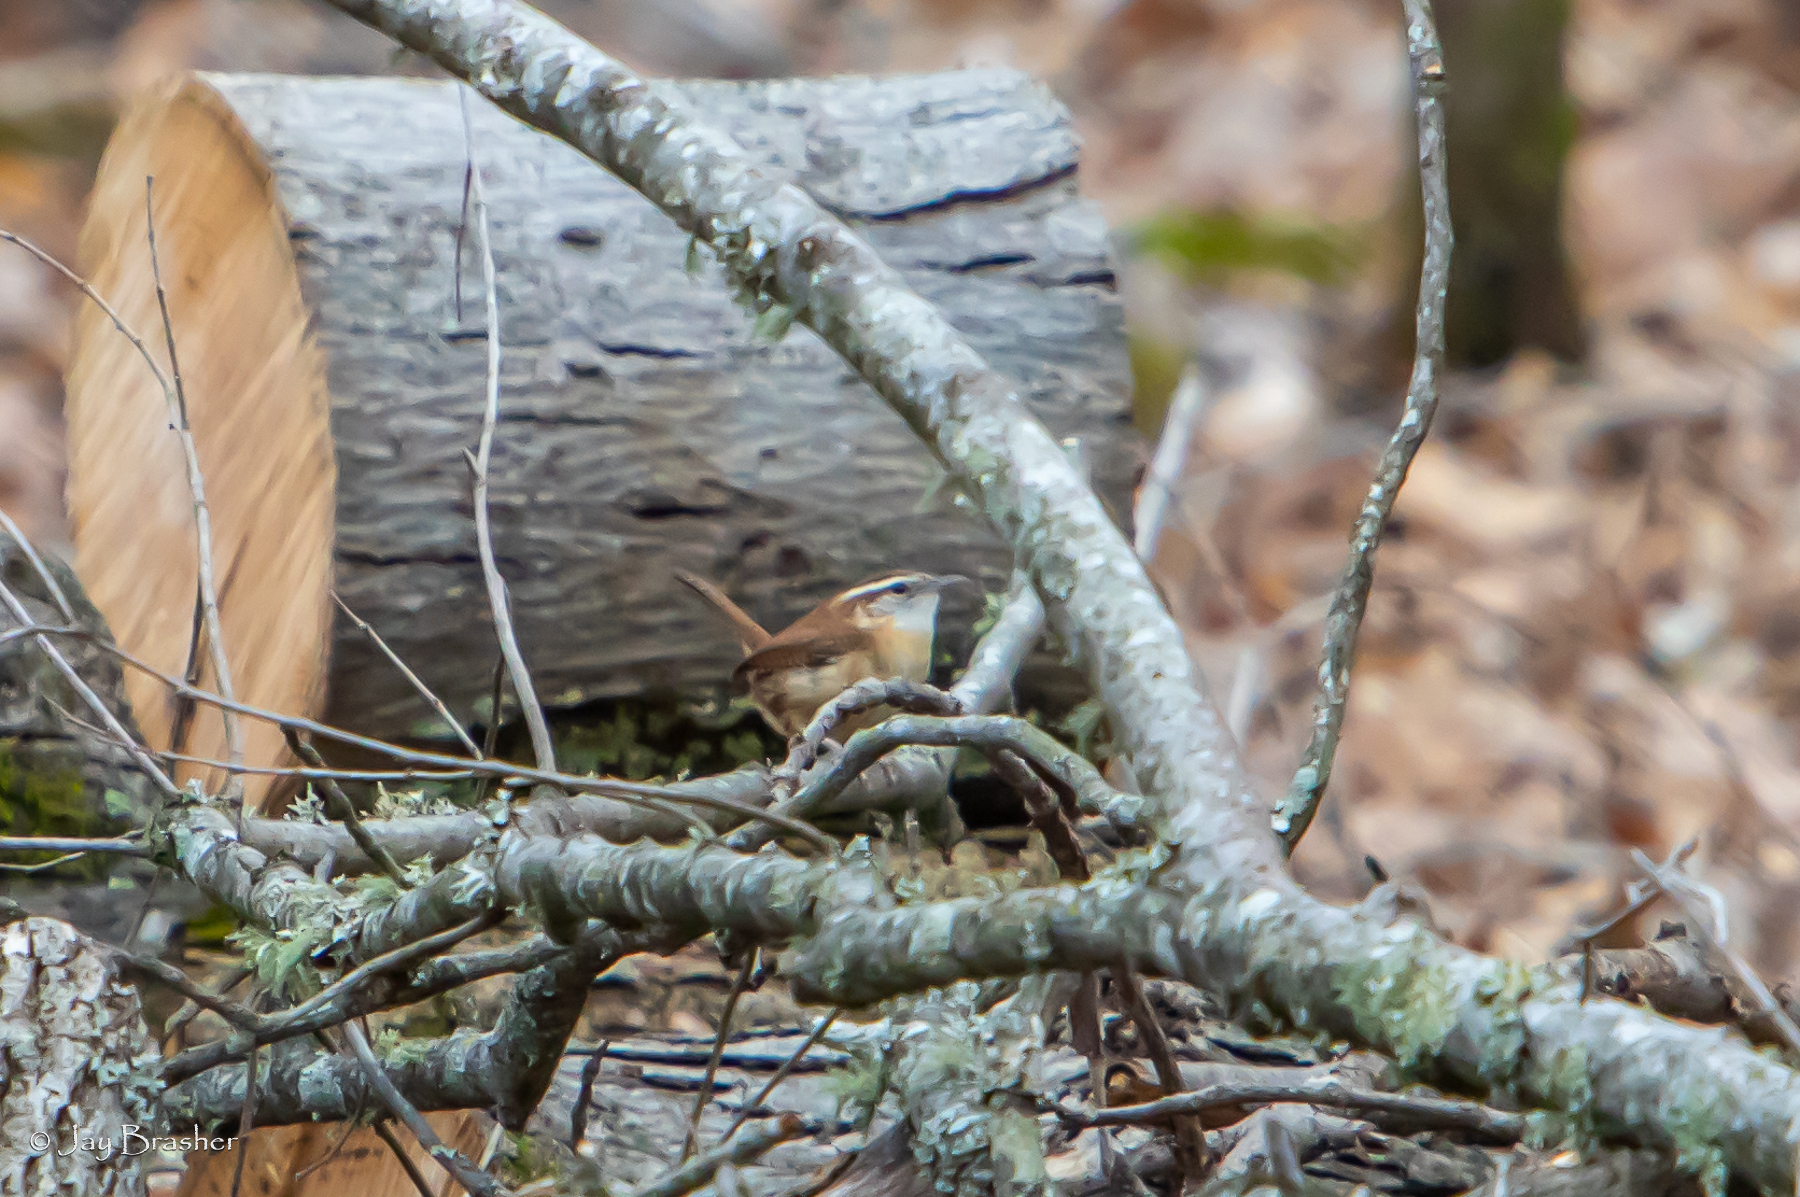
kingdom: Animalia
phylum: Chordata
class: Aves
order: Passeriformes
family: Troglodytidae
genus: Thryothorus
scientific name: Thryothorus ludovicianus
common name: Carolina wren
